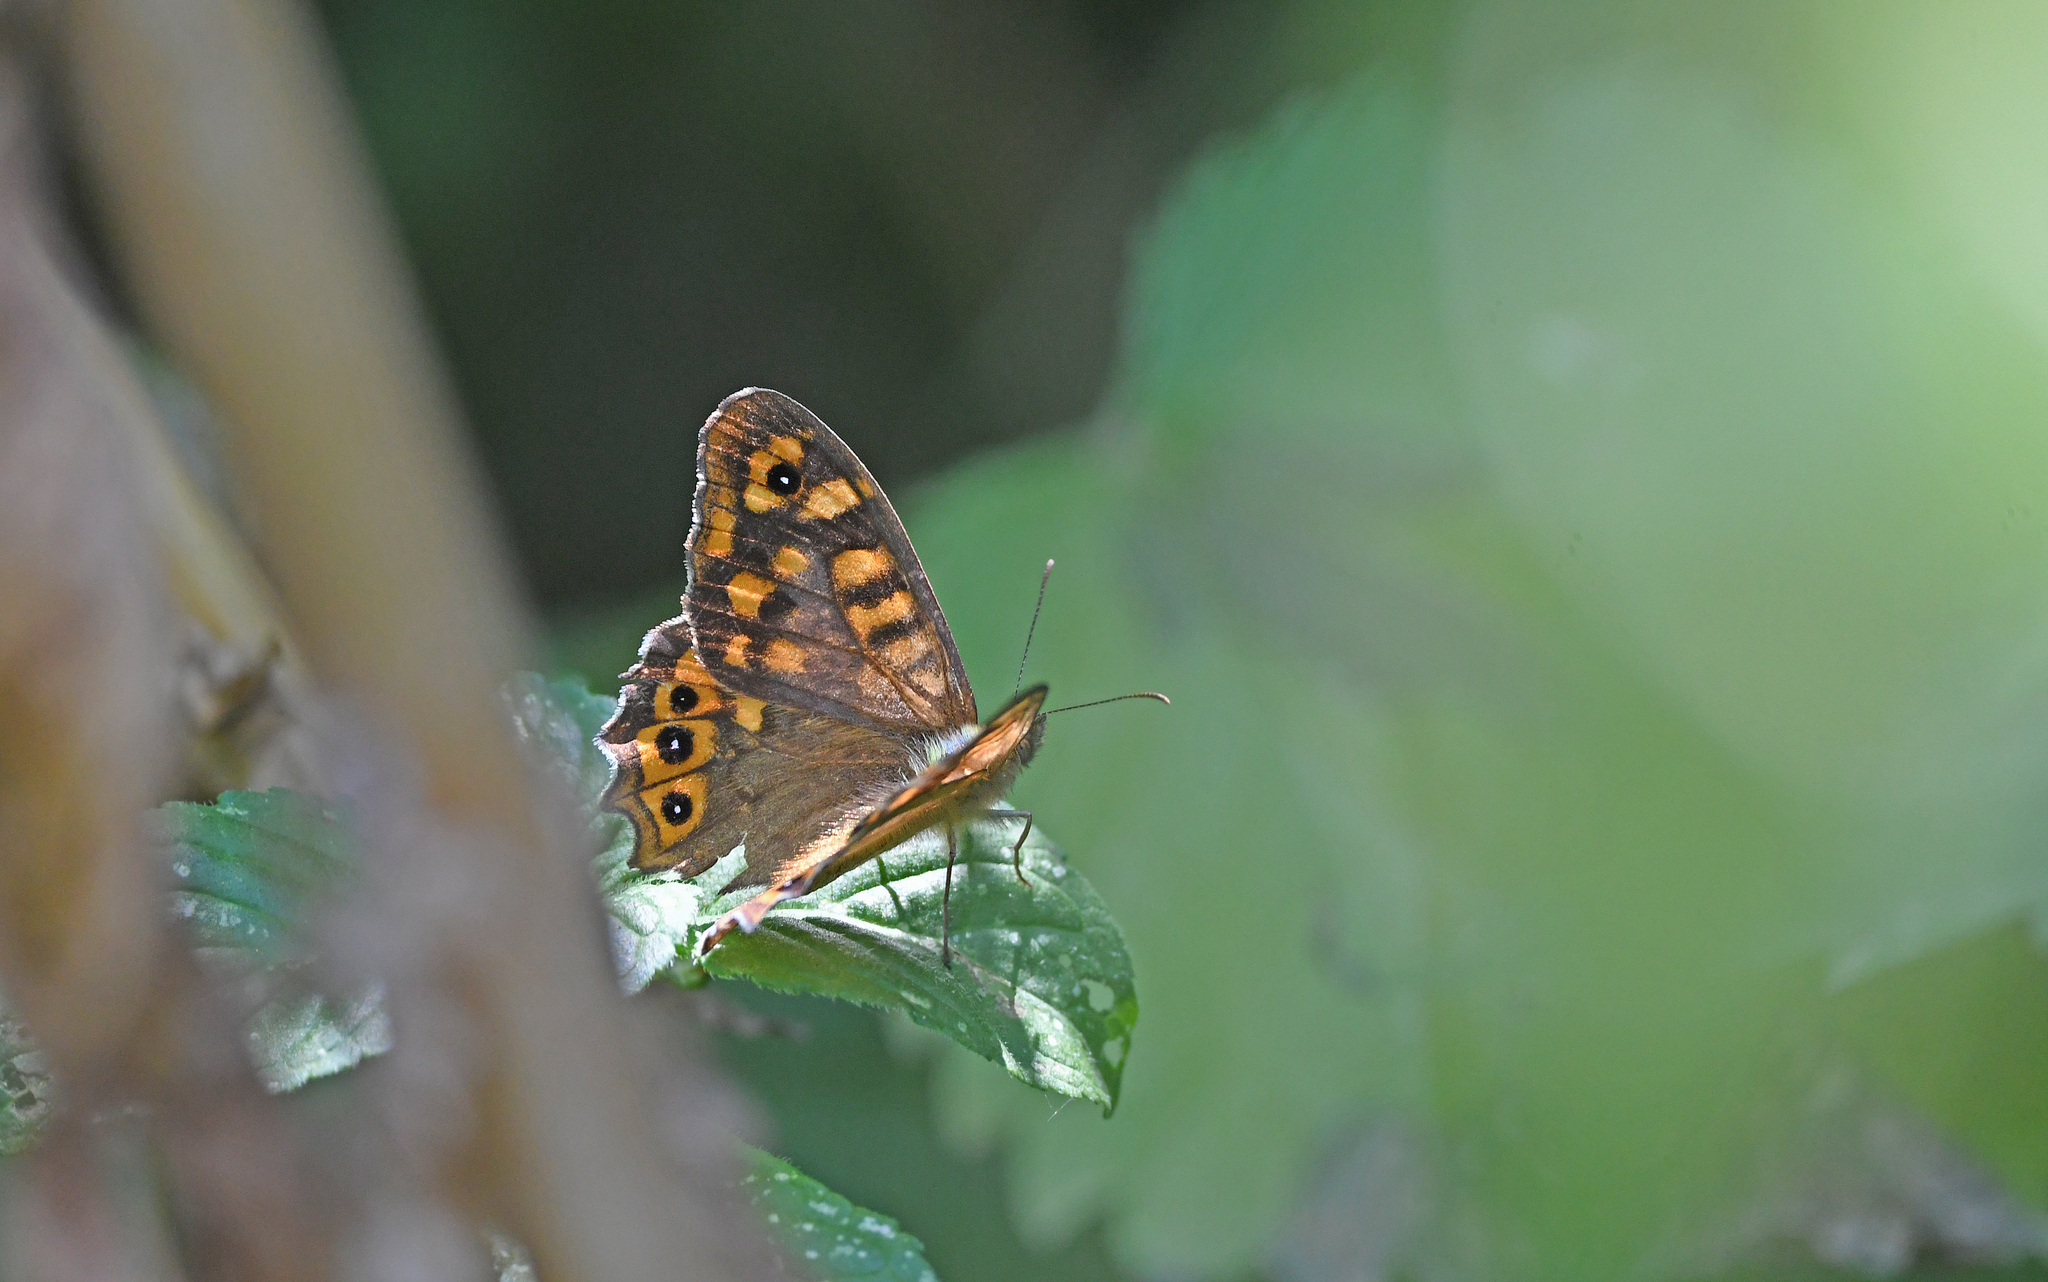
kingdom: Animalia
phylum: Arthropoda
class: Insecta
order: Lepidoptera
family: Nymphalidae
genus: Pararge
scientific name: Pararge aegeria
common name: Speckled wood
